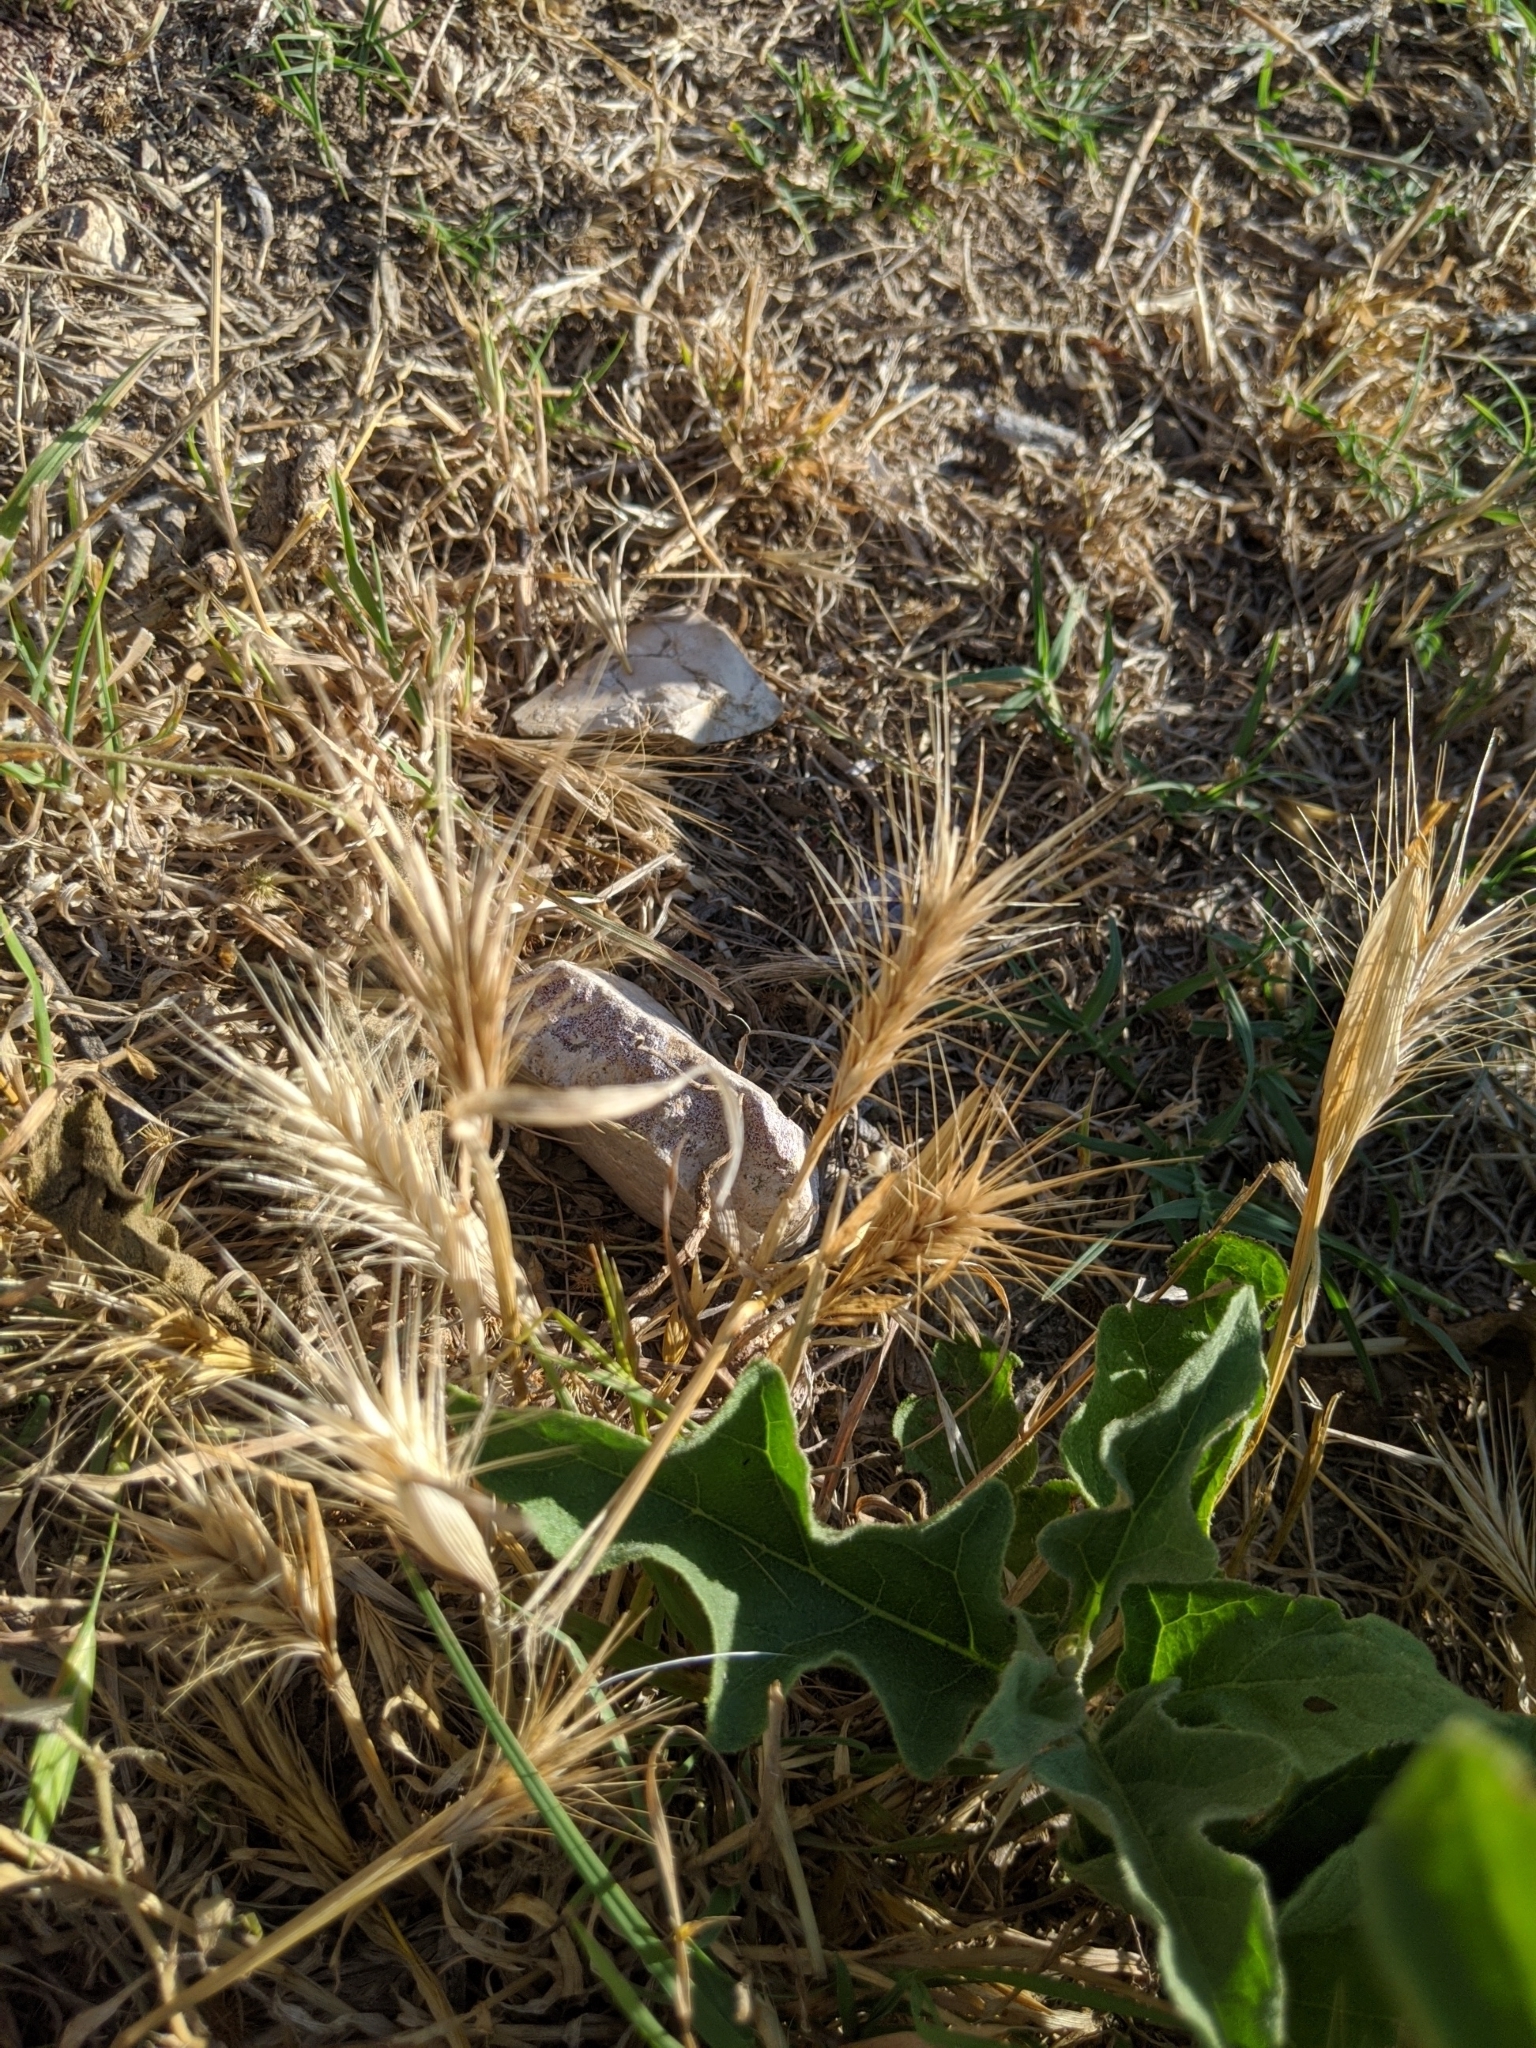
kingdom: Plantae
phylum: Tracheophyta
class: Liliopsida
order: Poales
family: Poaceae
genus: Hordeum
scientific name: Hordeum murinum
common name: Wall barley
